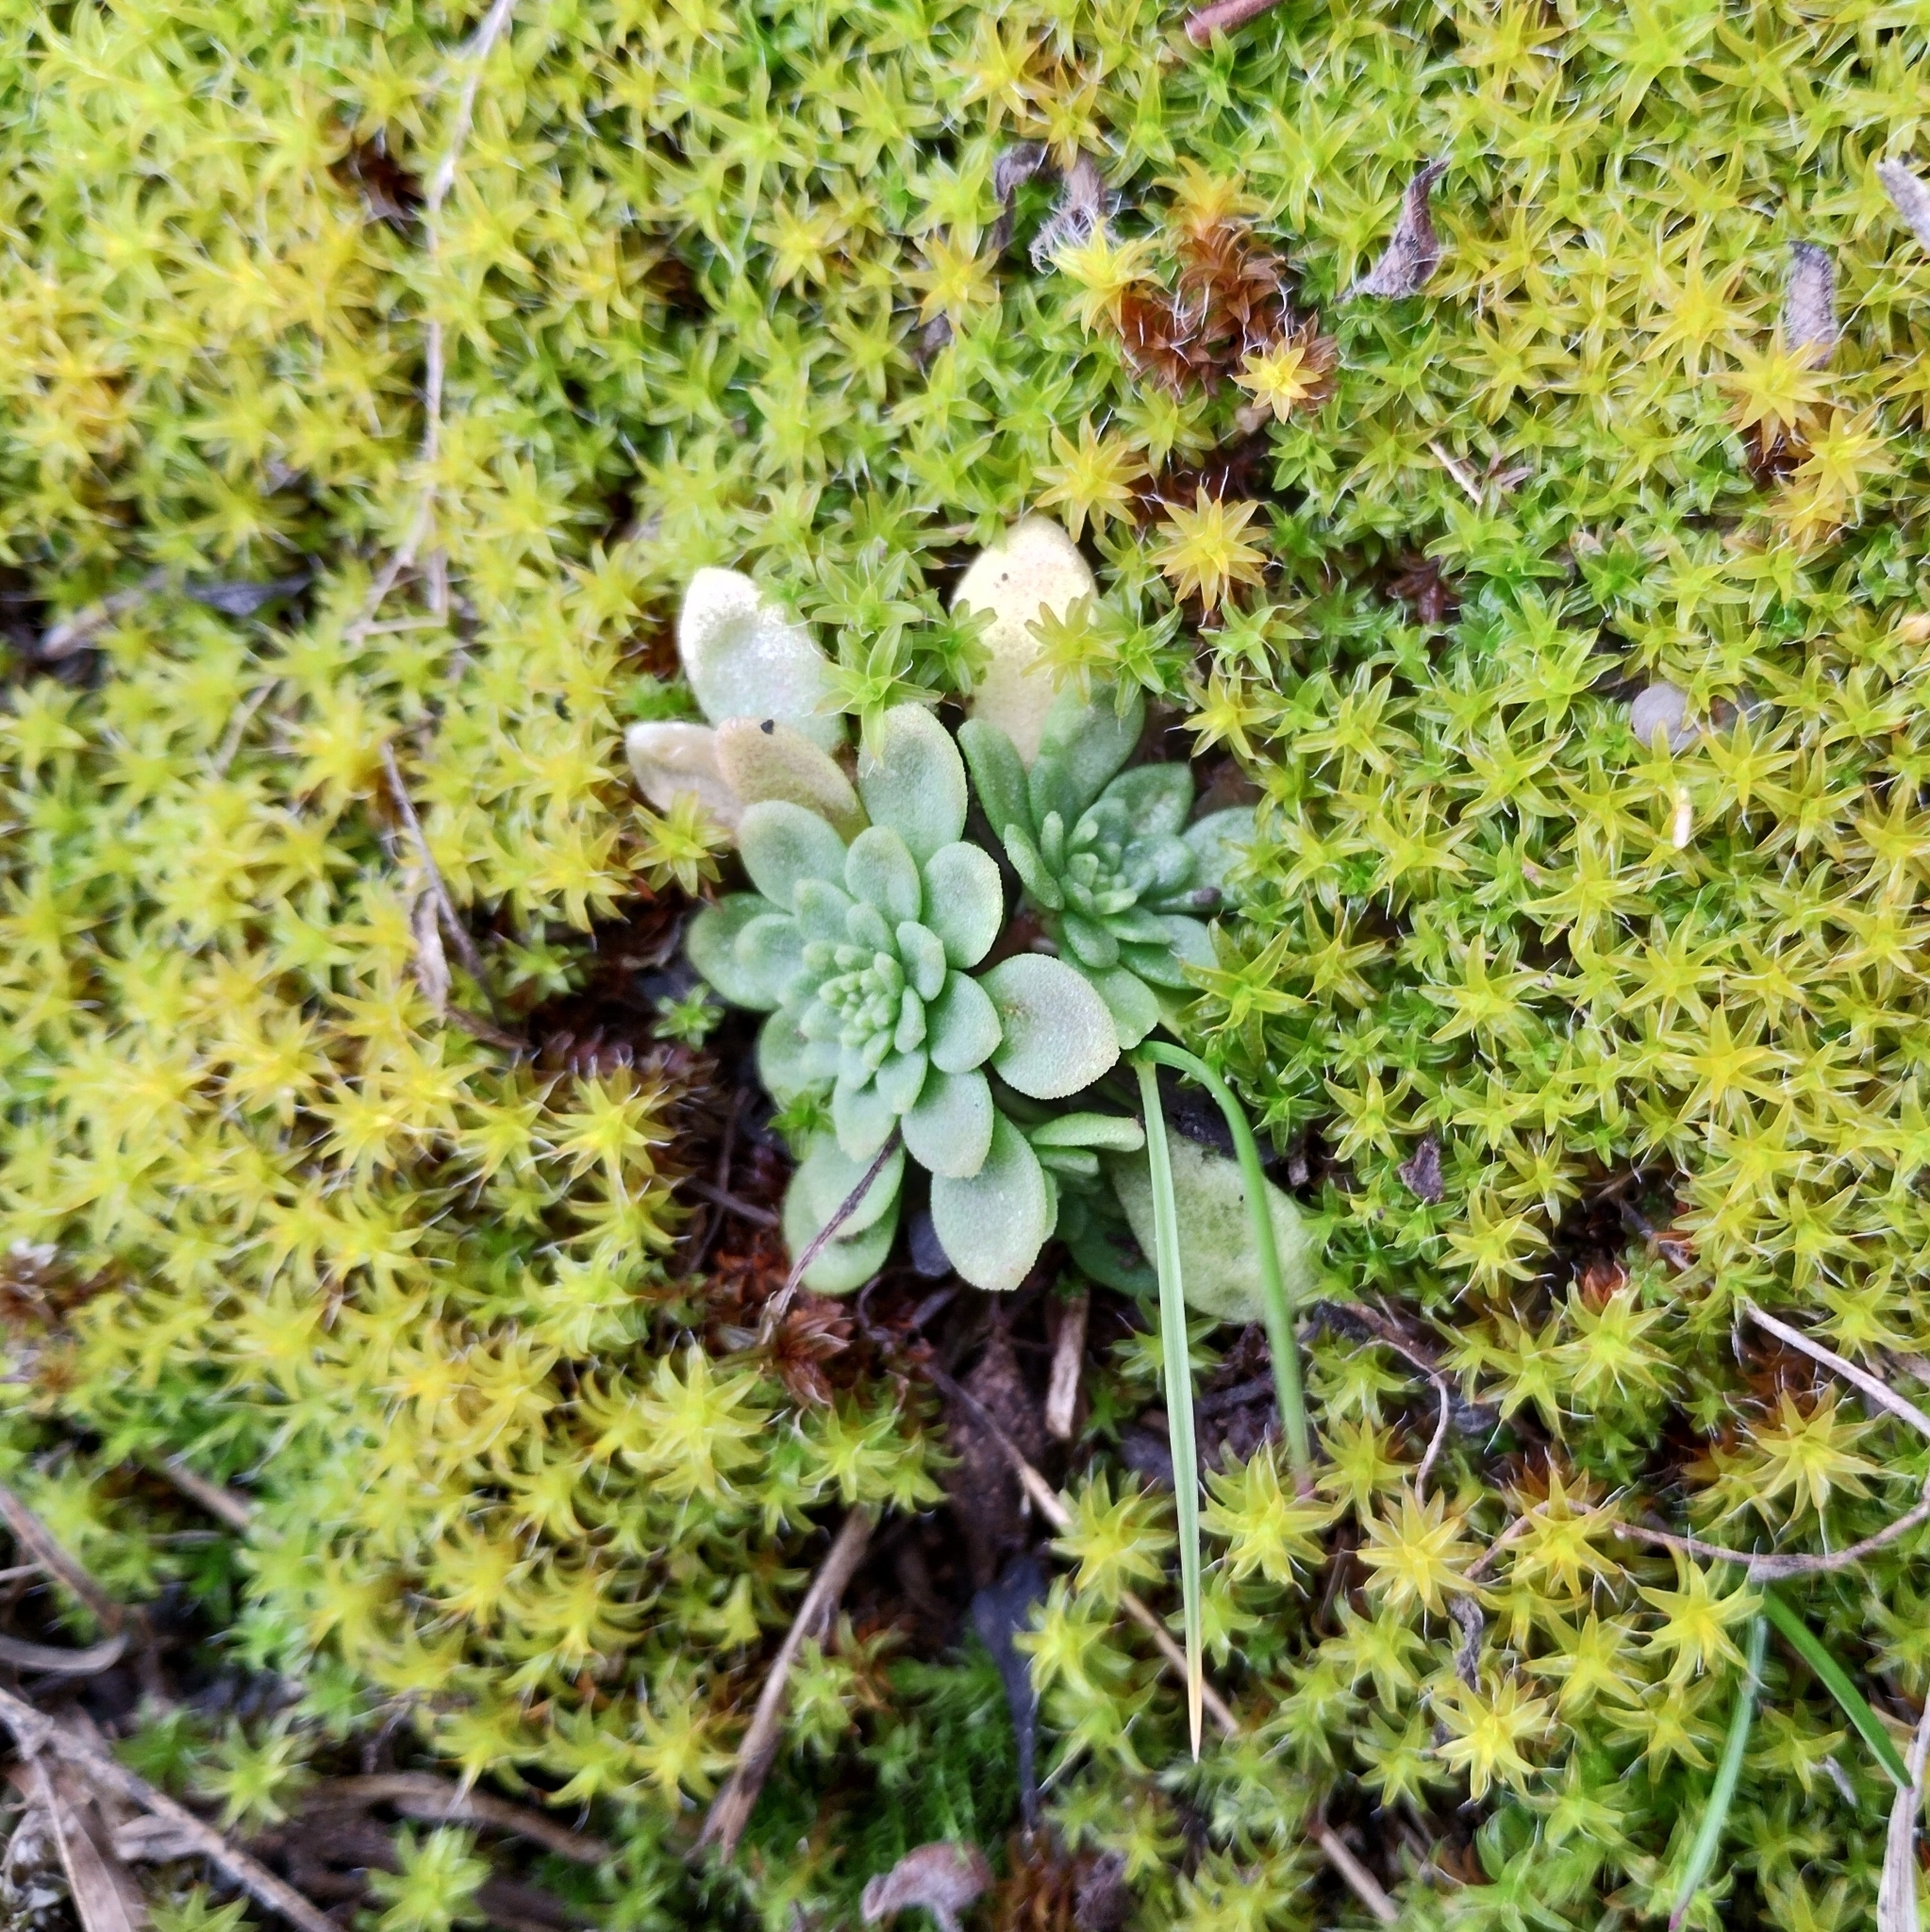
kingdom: Plantae
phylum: Tracheophyta
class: Magnoliopsida
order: Saxifragales
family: Crassulaceae
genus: Sedum
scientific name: Sedum cepaea
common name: Pink stonecrop
